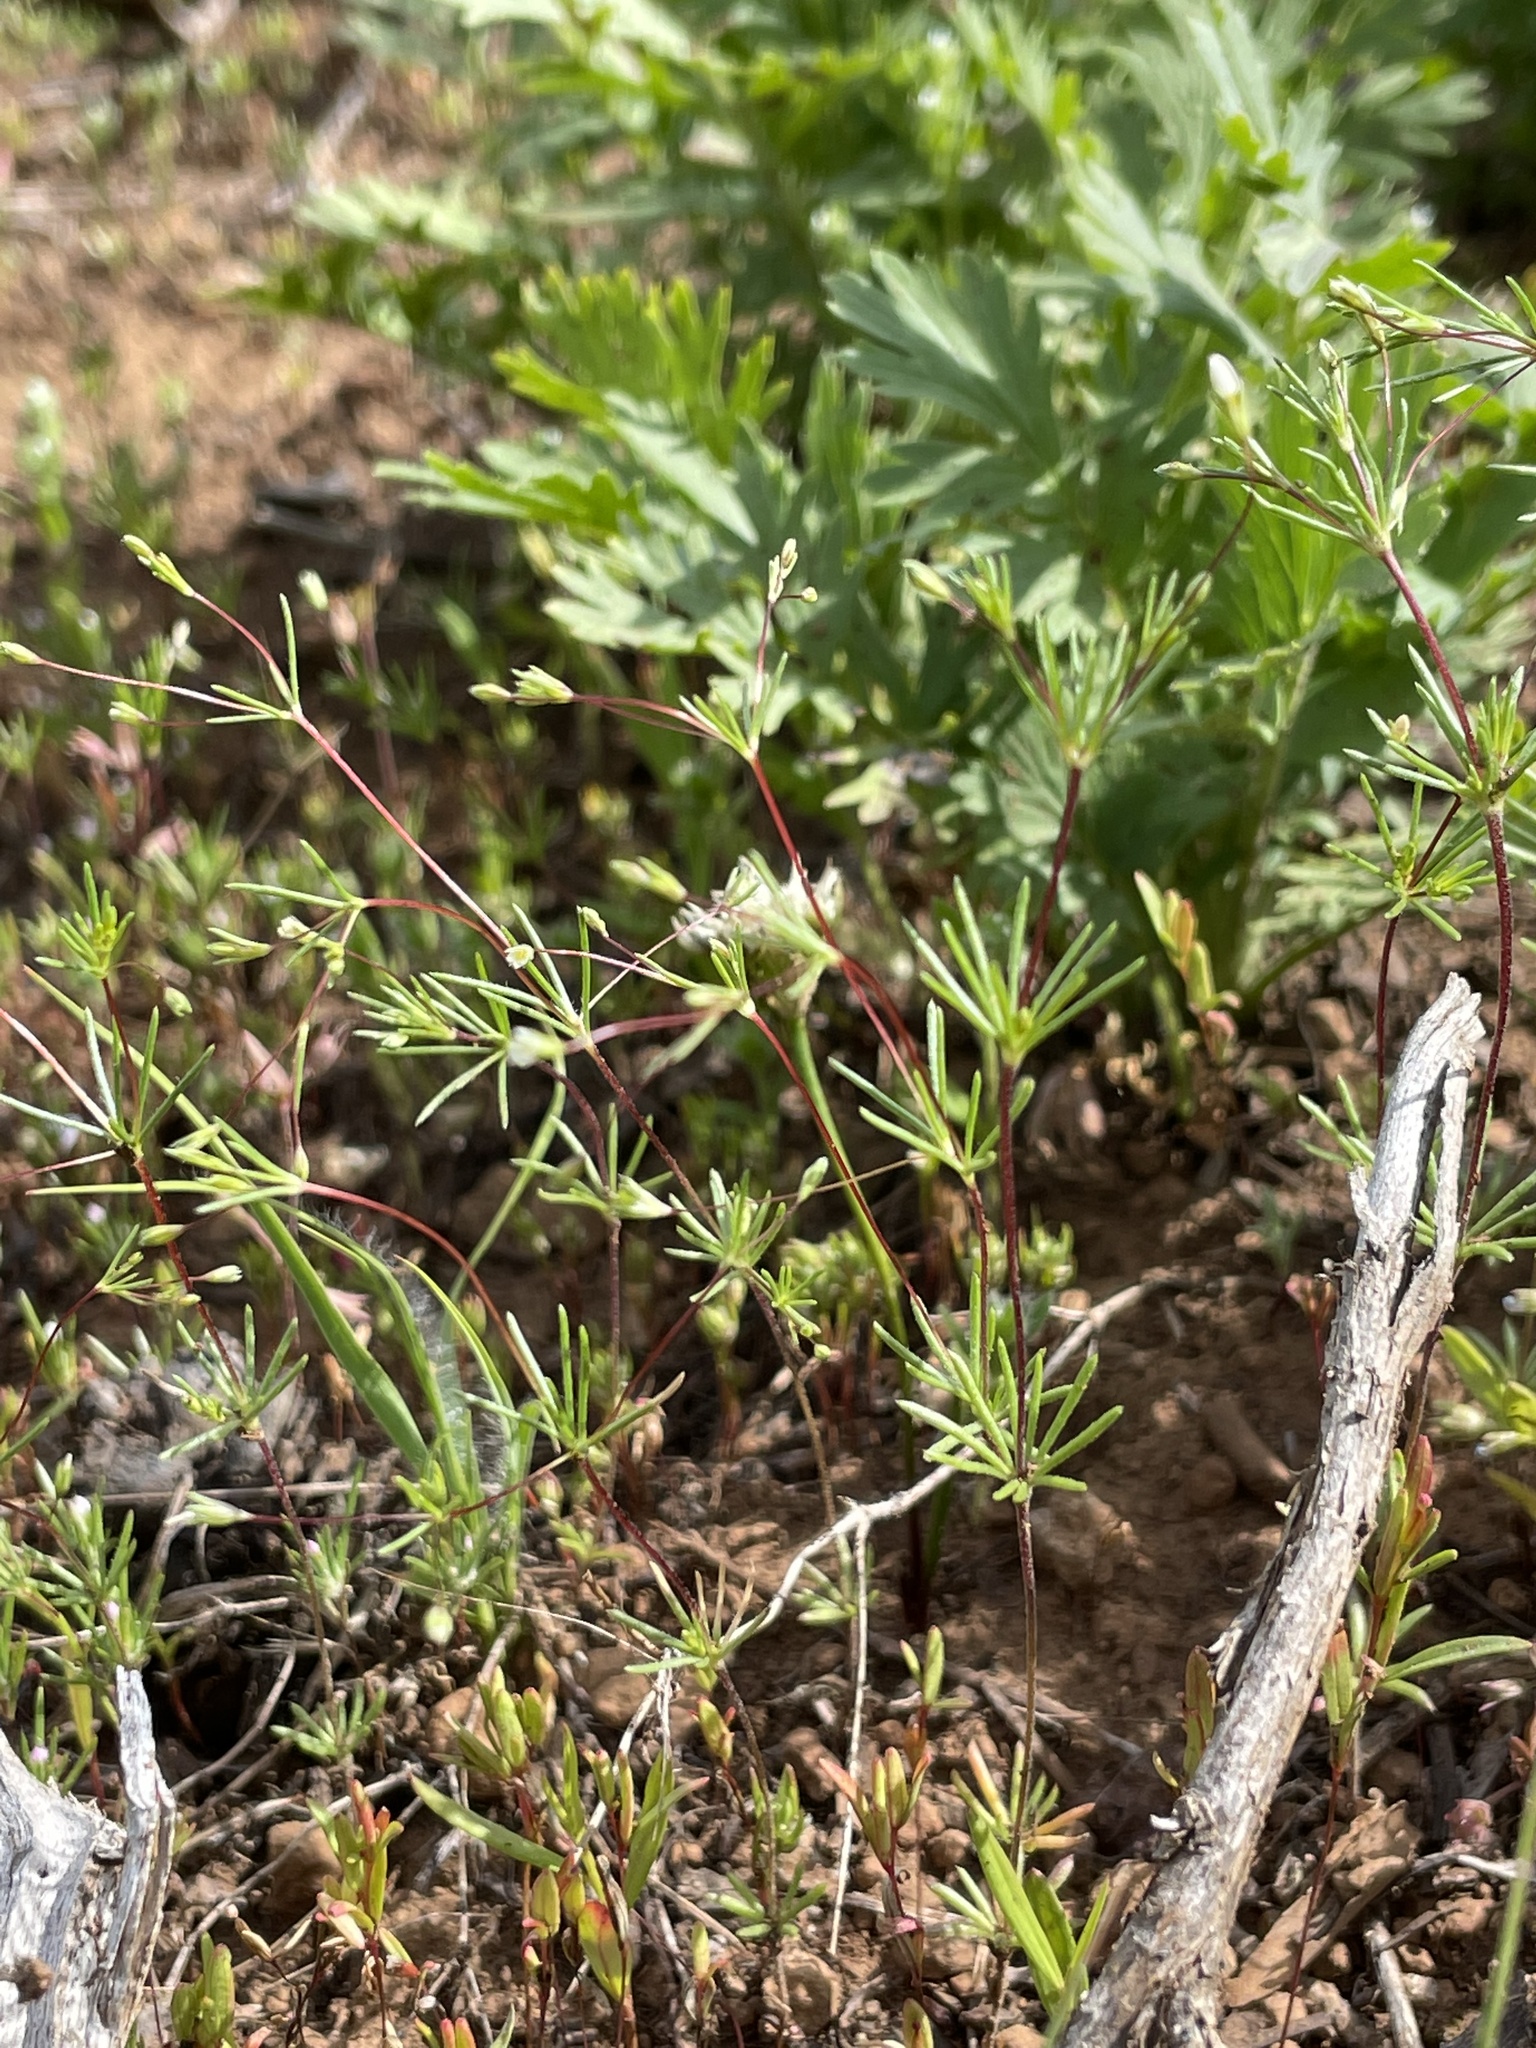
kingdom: Plantae
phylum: Tracheophyta
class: Magnoliopsida
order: Ericales
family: Polemoniaceae
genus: Leptosiphon
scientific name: Leptosiphon septentrionalis
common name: Northern linanthus
